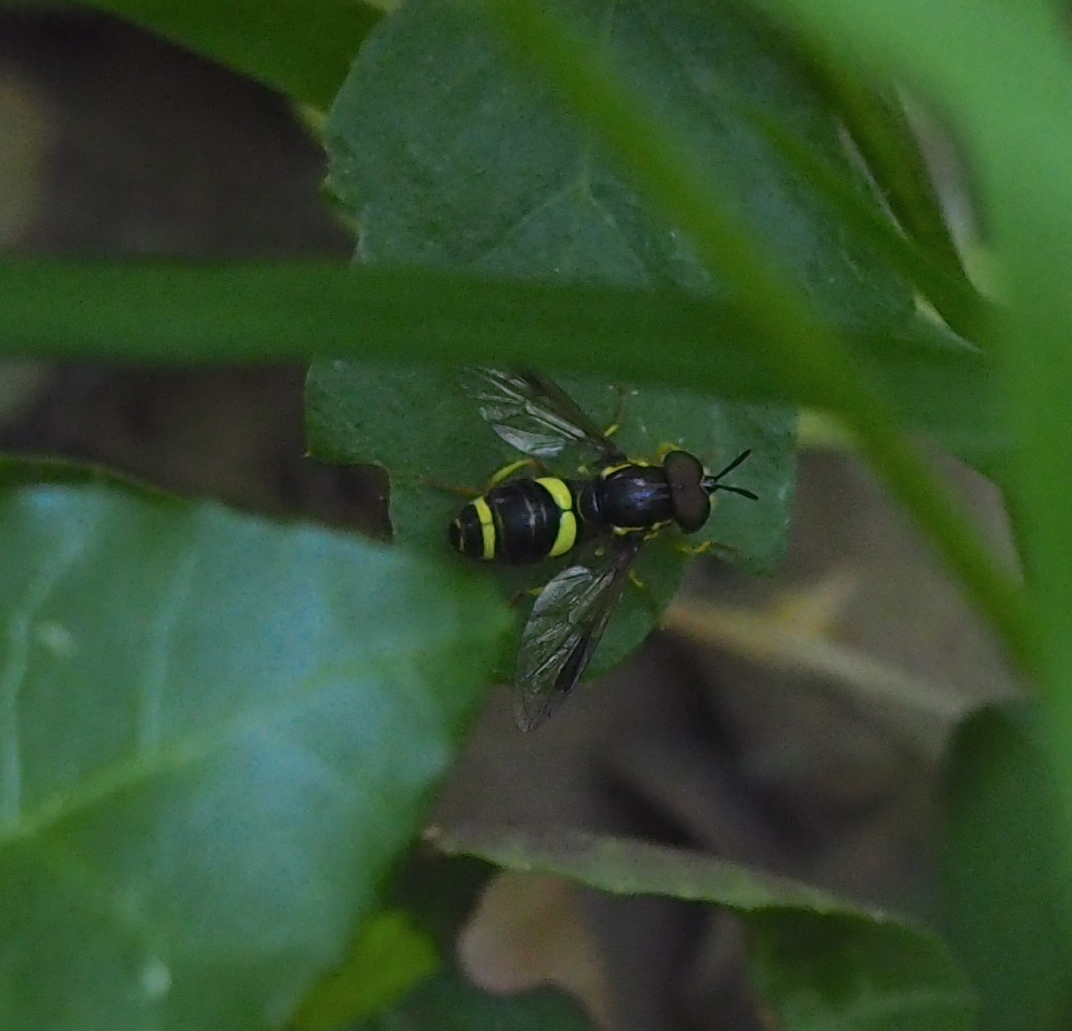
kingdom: Animalia
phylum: Arthropoda
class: Insecta
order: Diptera
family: Syrphidae
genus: Chrysotoxum
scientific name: Chrysotoxum bicincta
